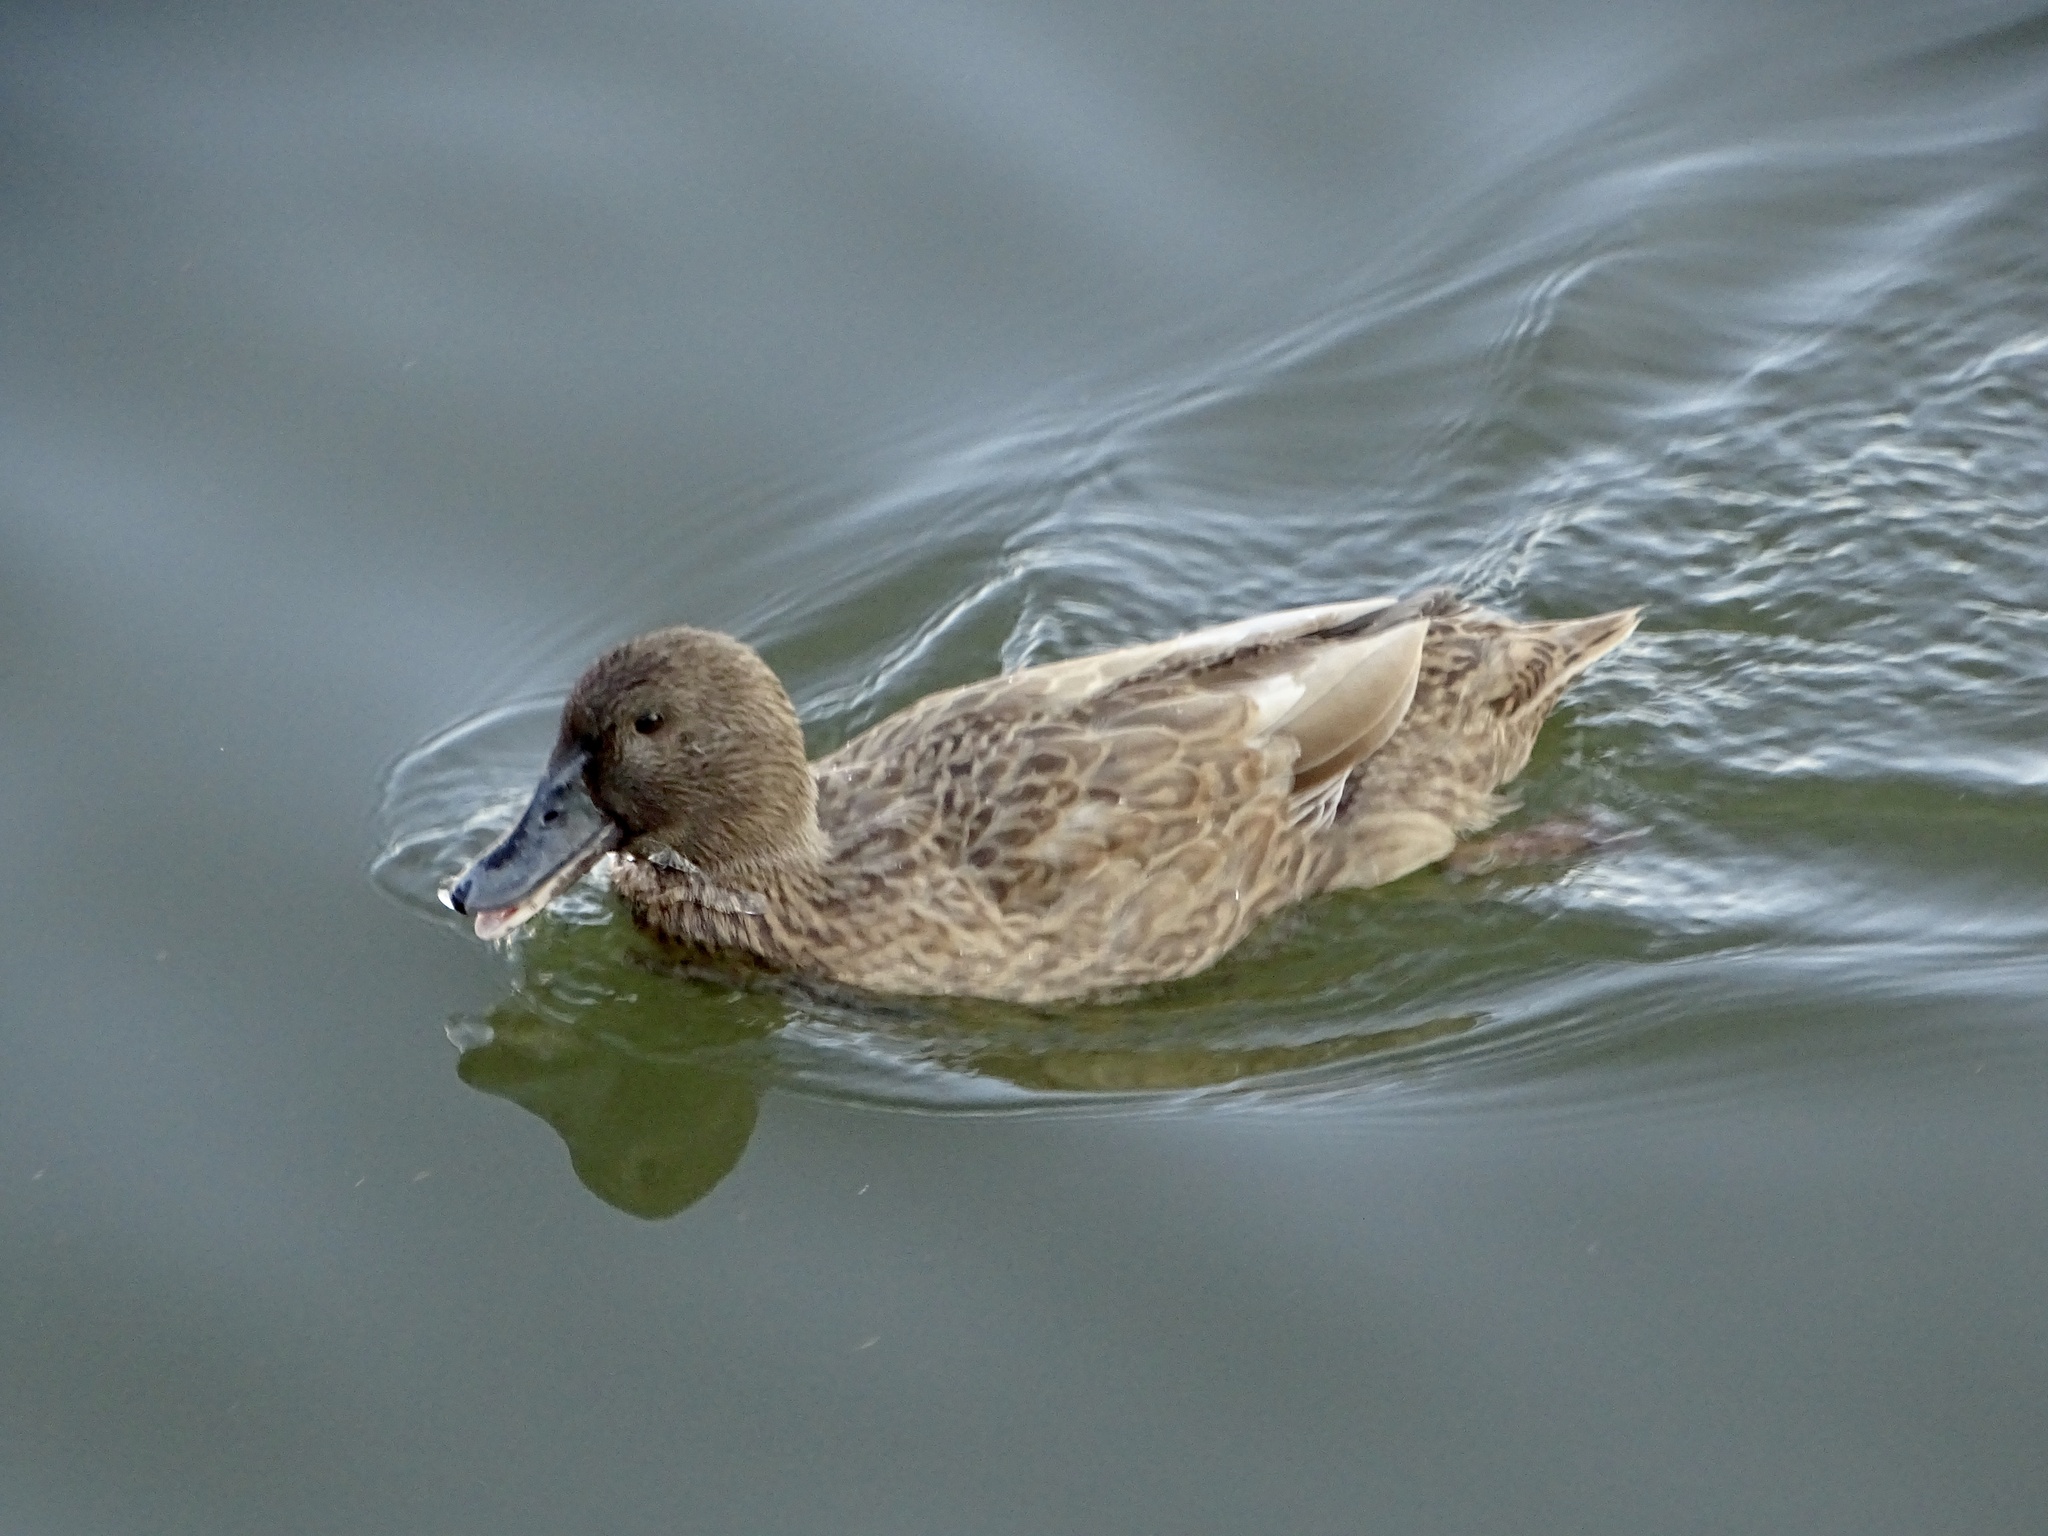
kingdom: Animalia
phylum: Chordata
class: Aves
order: Anseriformes
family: Anatidae
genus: Anas
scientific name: Anas platyrhynchos
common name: Mallard
